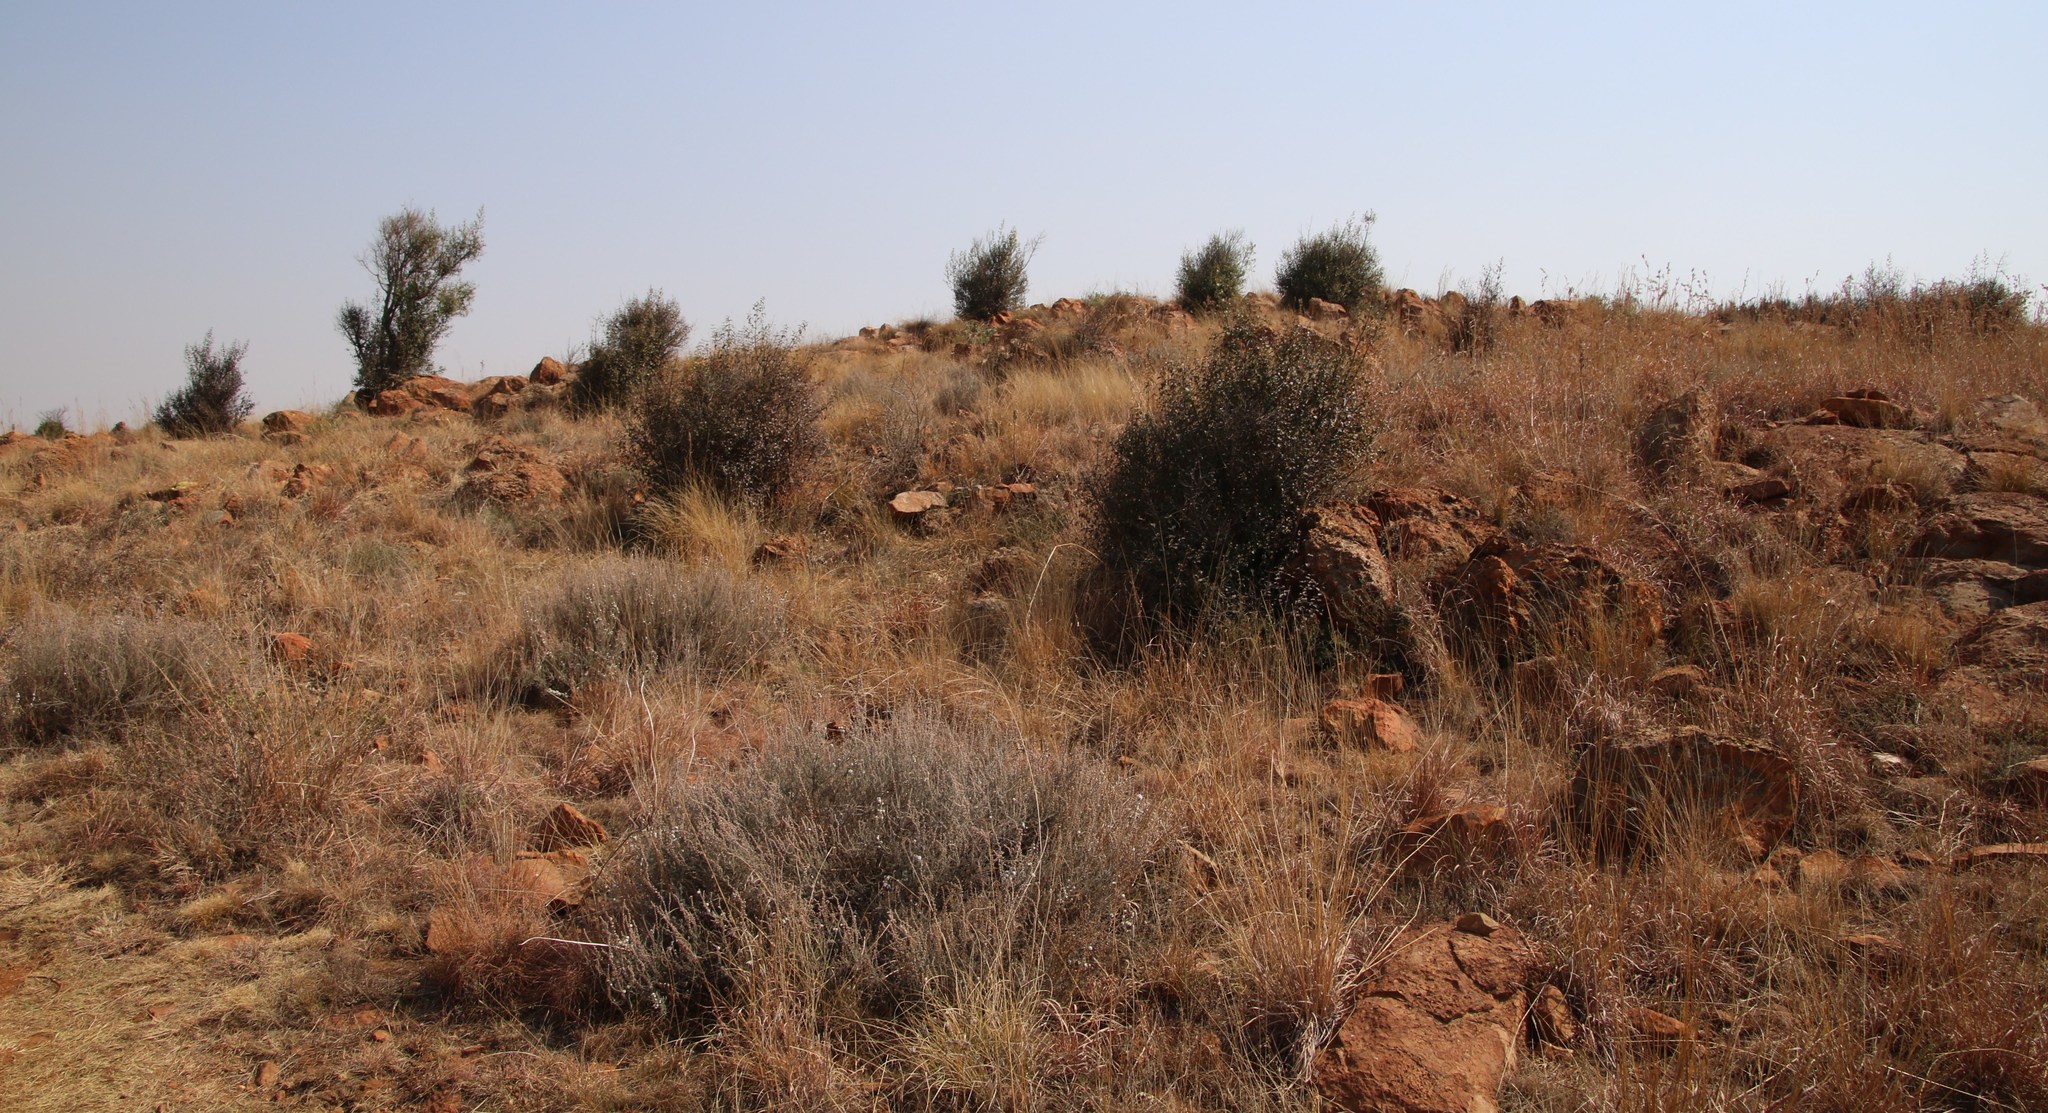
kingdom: Plantae
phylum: Tracheophyta
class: Magnoliopsida
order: Lamiales
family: Stilbaceae
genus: Halleria
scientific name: Halleria lucida
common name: Tree fuschia
